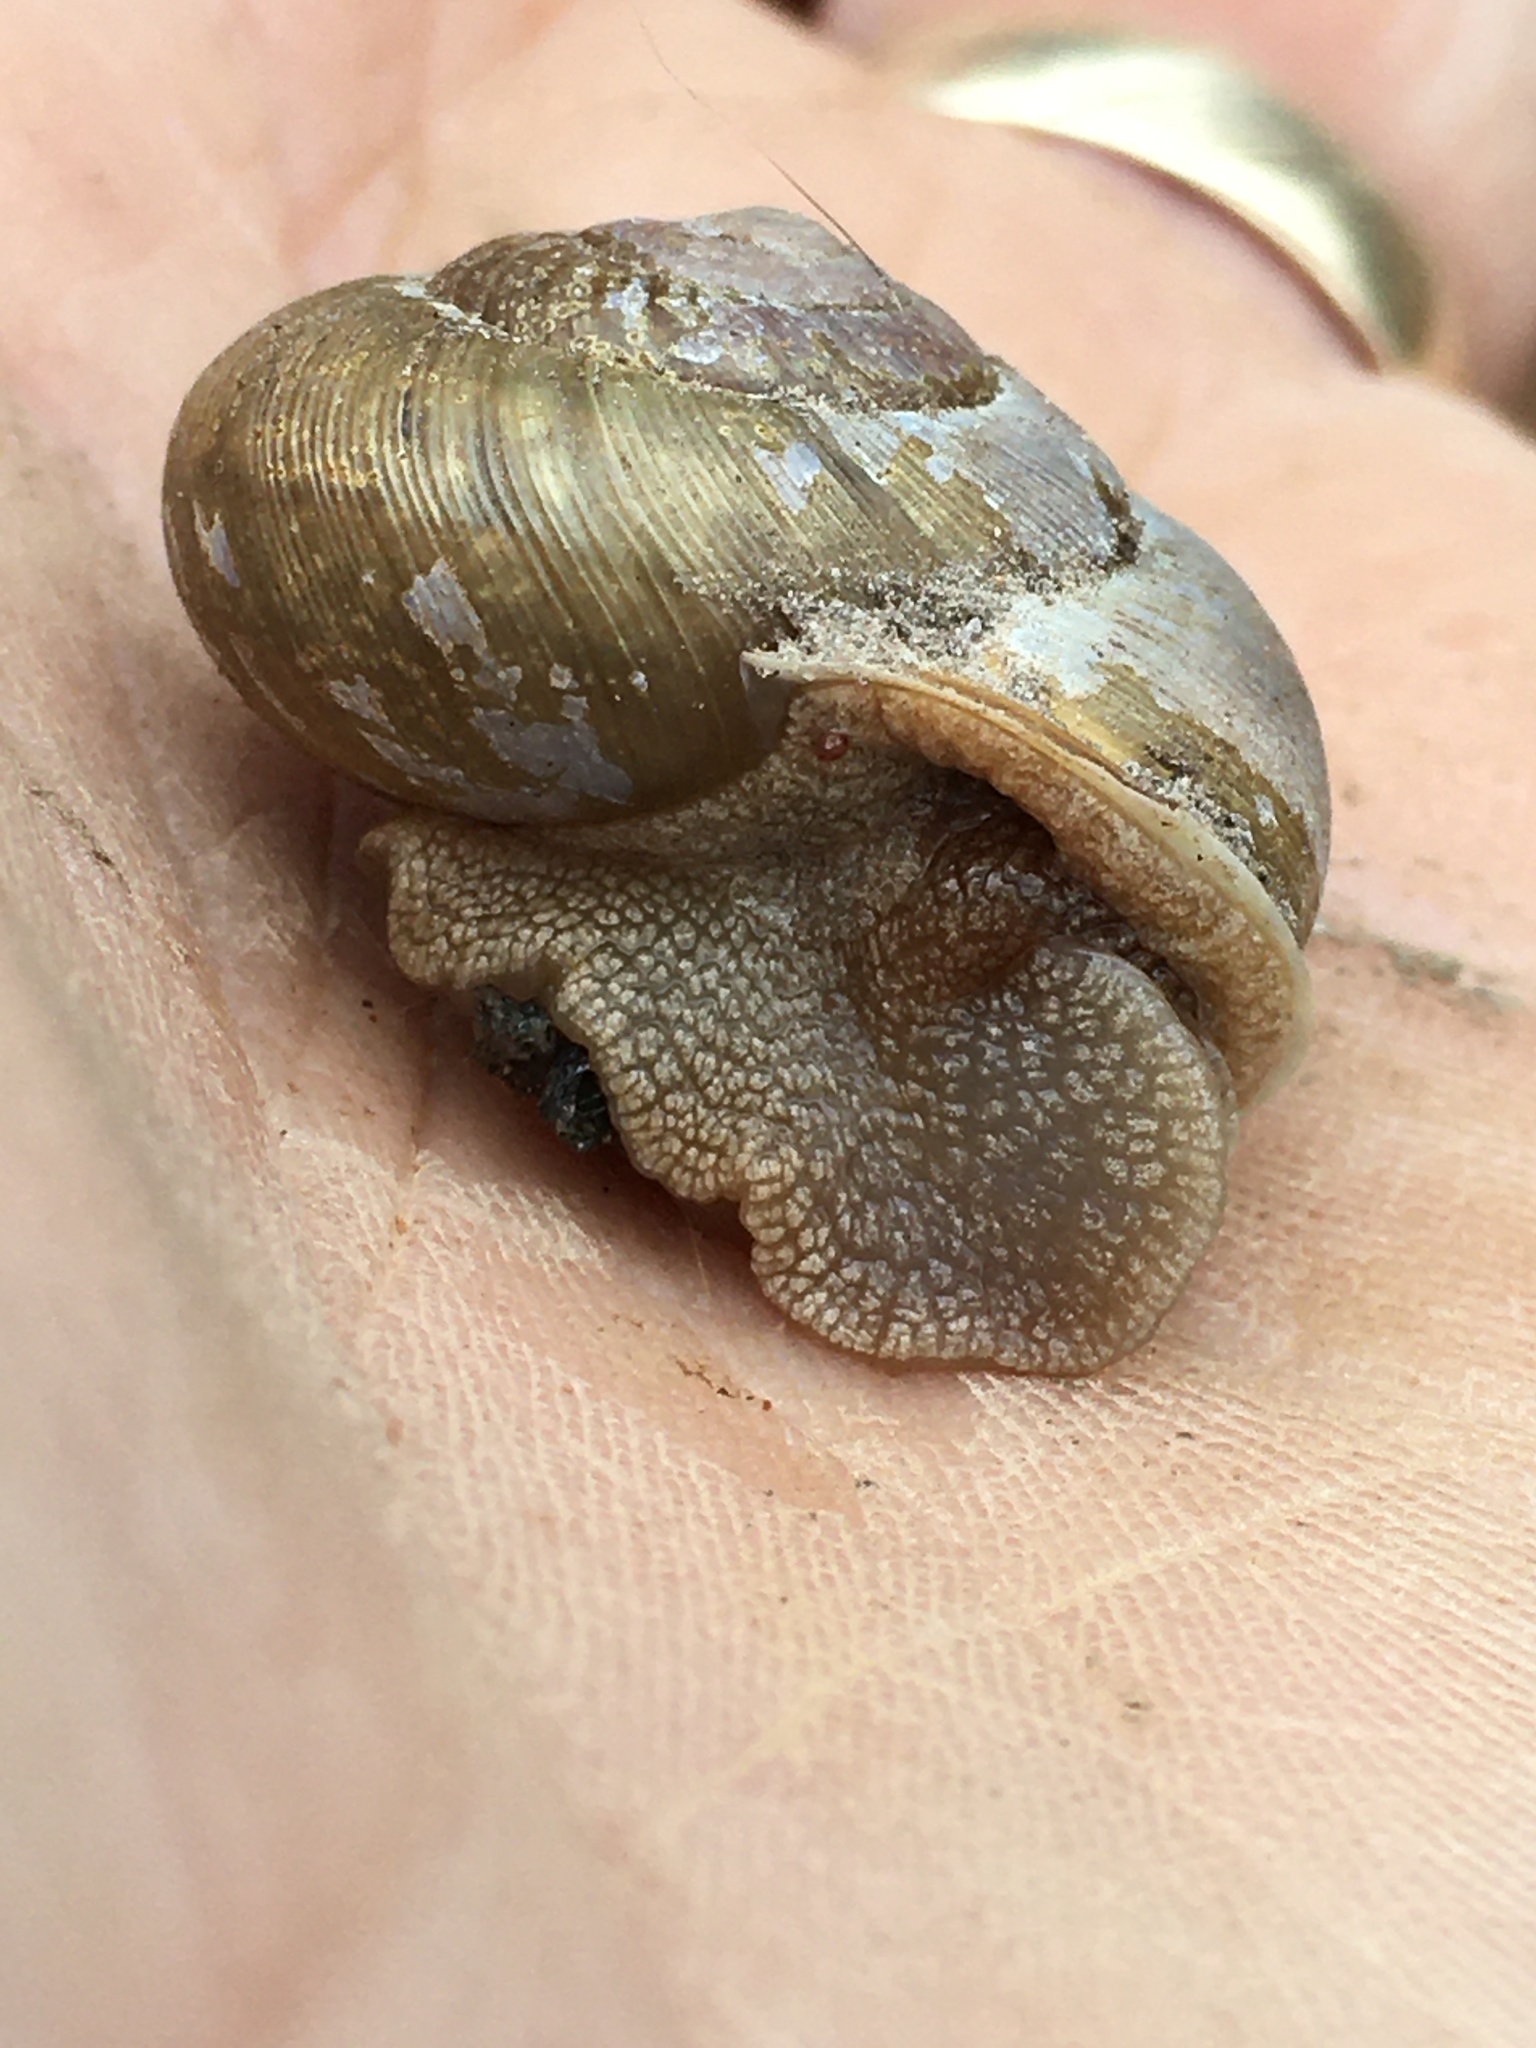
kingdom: Animalia
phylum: Mollusca
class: Gastropoda
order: Stylommatophora
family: Polygyridae
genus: Mesodon
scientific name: Mesodon thyroidus
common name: White-lip globe
